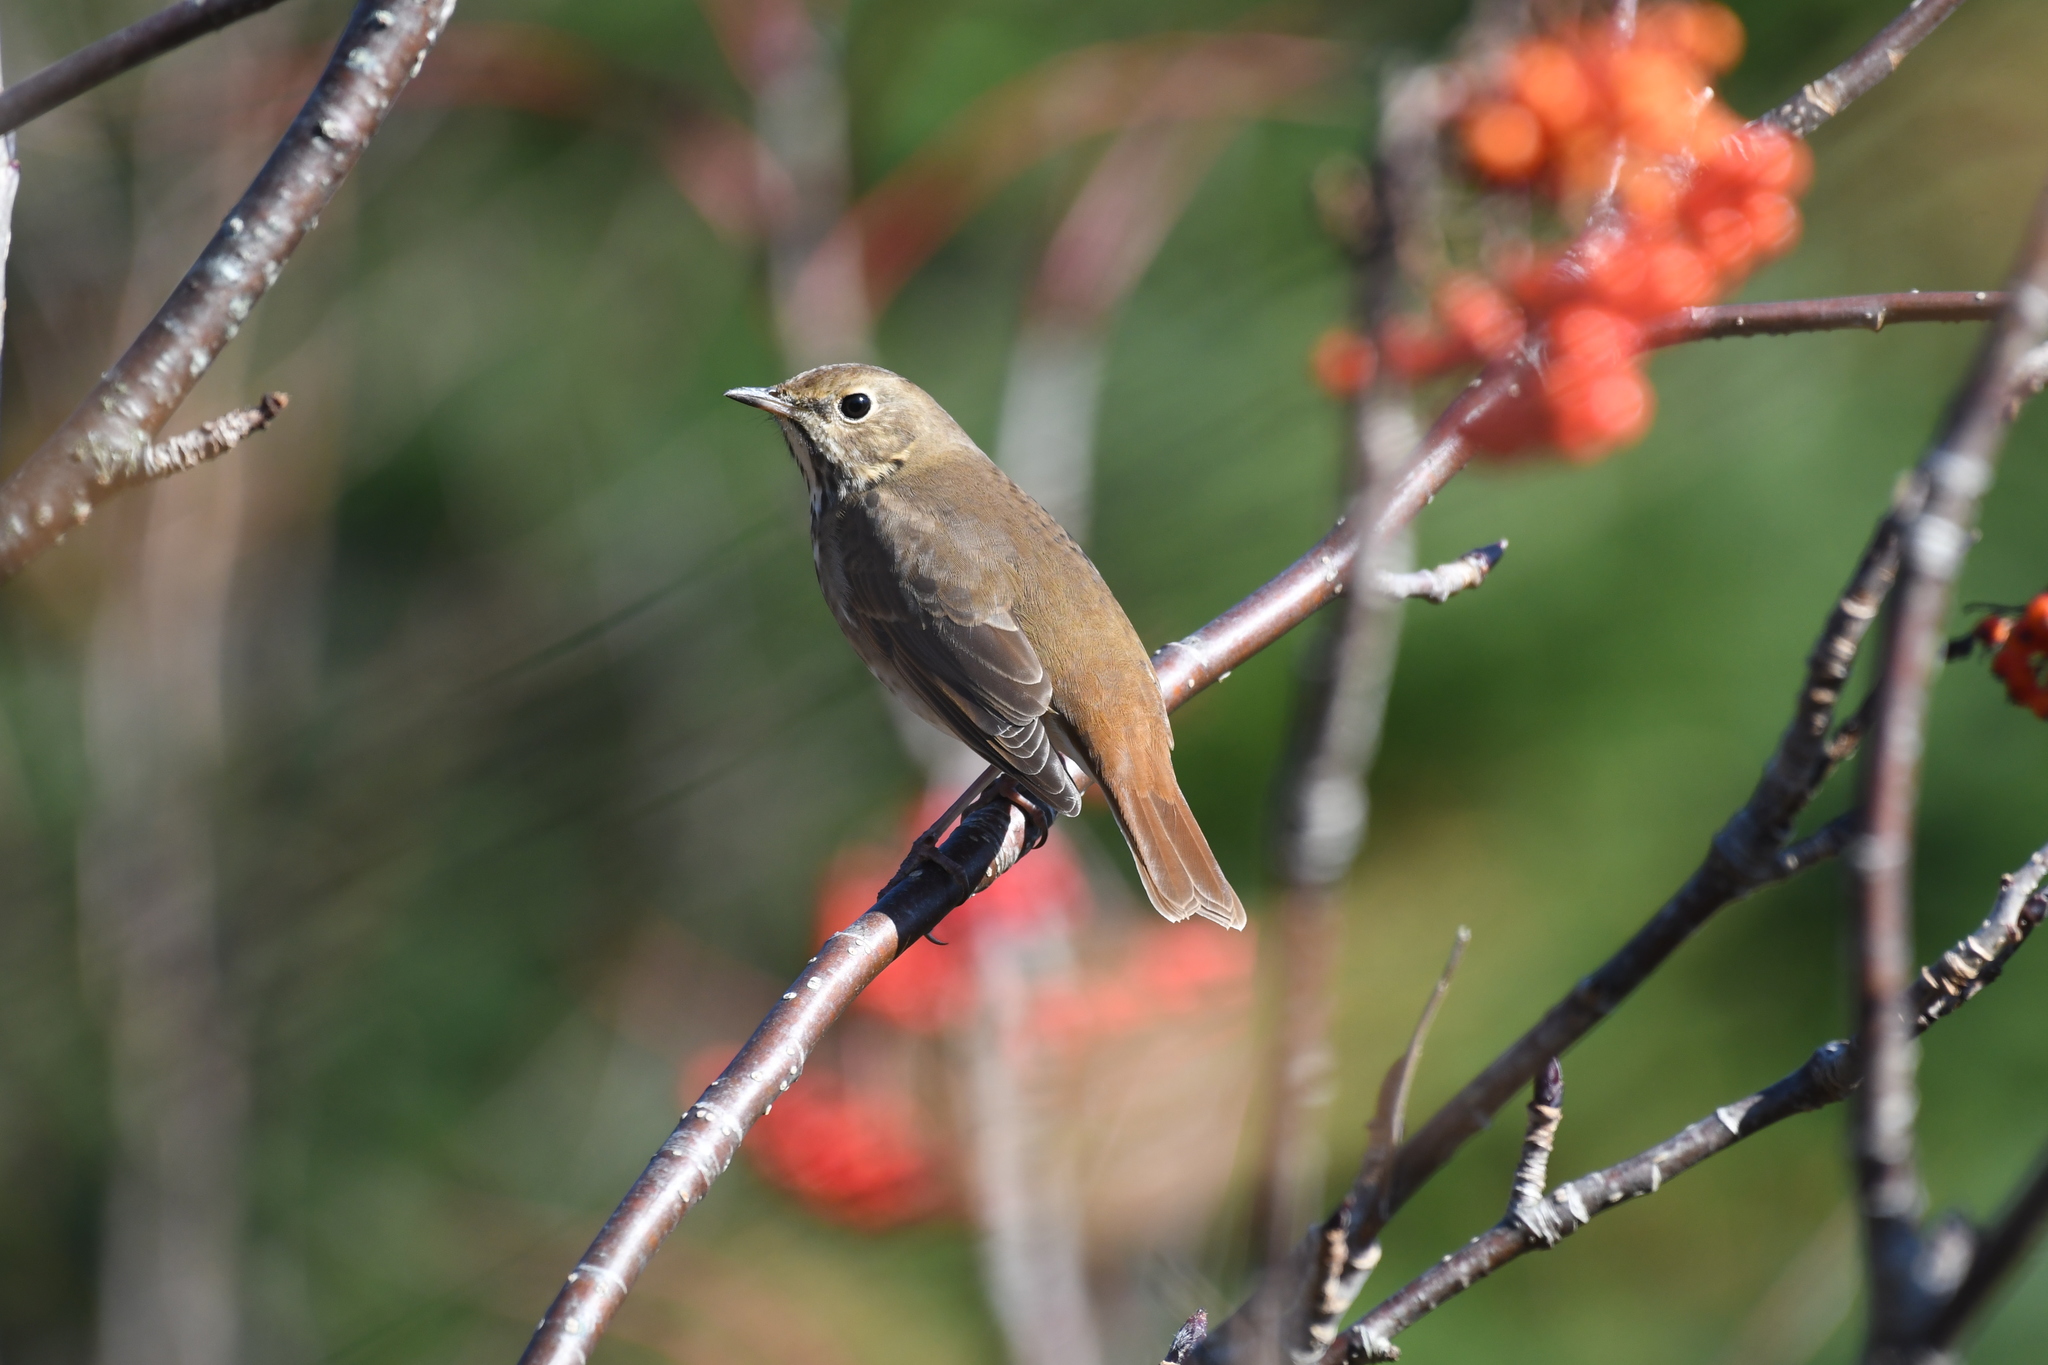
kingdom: Animalia
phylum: Chordata
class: Aves
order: Passeriformes
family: Turdidae
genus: Catharus
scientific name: Catharus guttatus
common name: Hermit thrush
